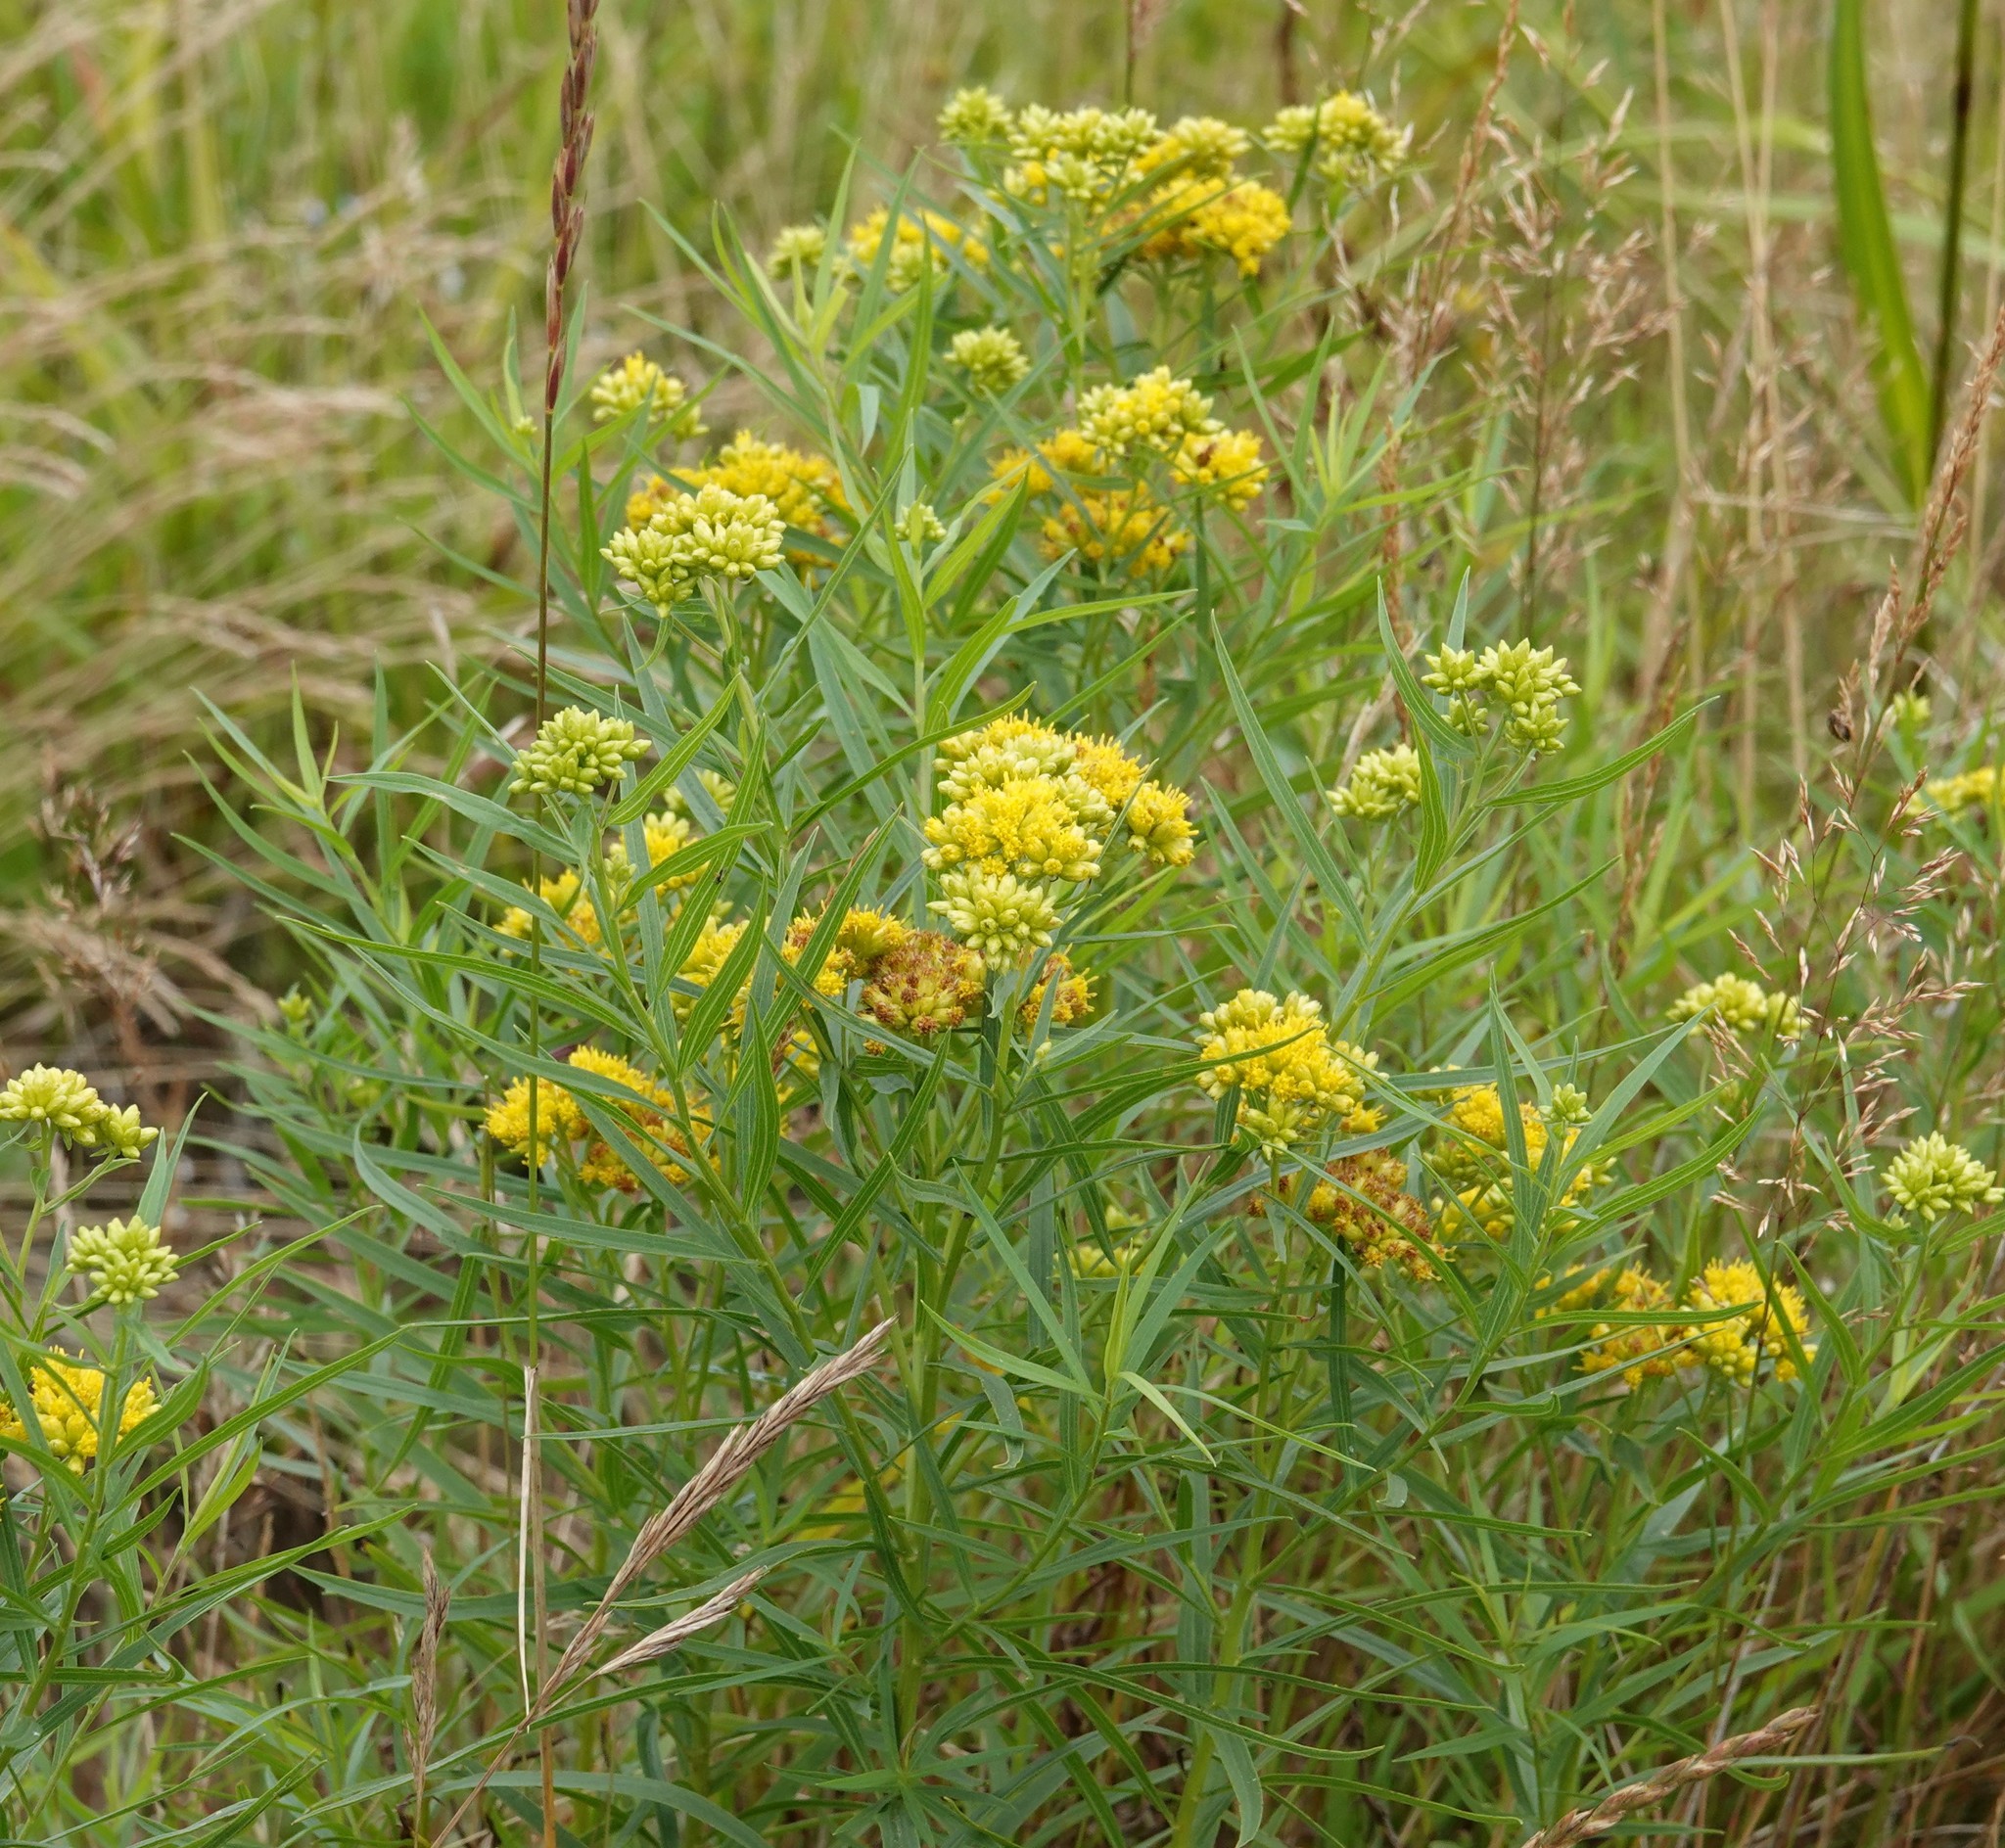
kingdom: Plantae
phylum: Tracheophyta
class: Magnoliopsida
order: Asterales
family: Asteraceae
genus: Euthamia
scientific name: Euthamia graminifolia
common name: Common goldentop
